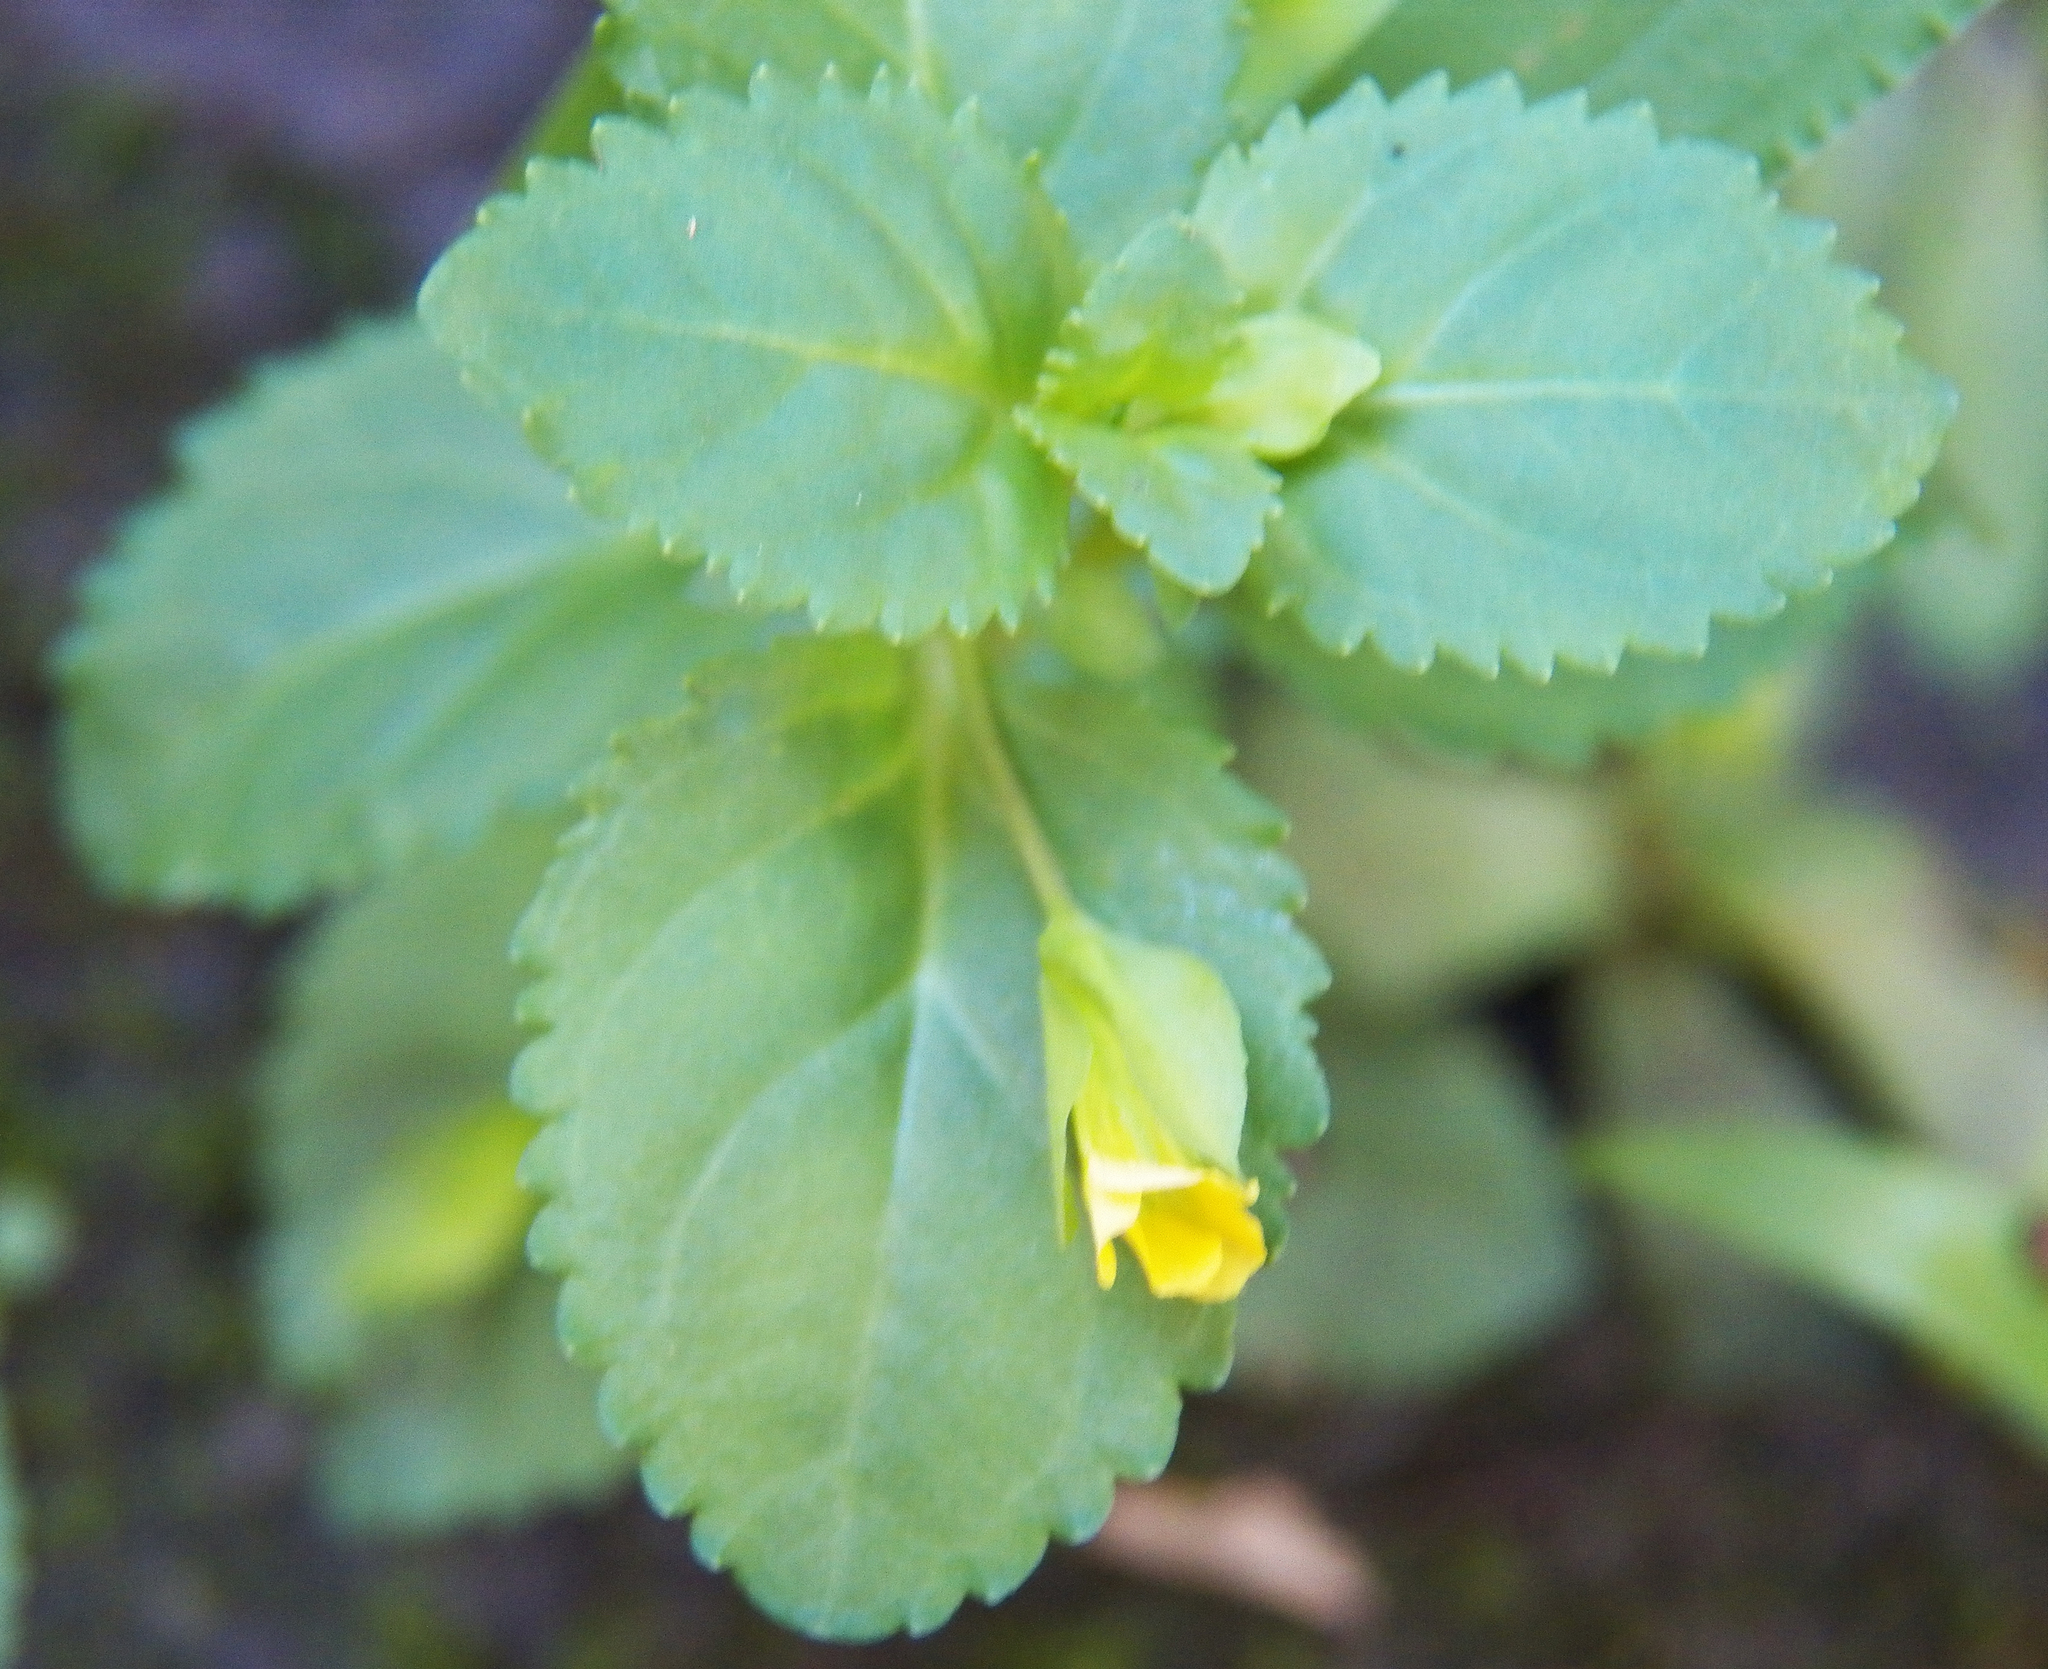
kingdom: Plantae
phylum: Tracheophyta
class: Magnoliopsida
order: Lamiales
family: Plantaginaceae
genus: Mecardonia
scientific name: Mecardonia procumbens
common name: Baby jump-up
